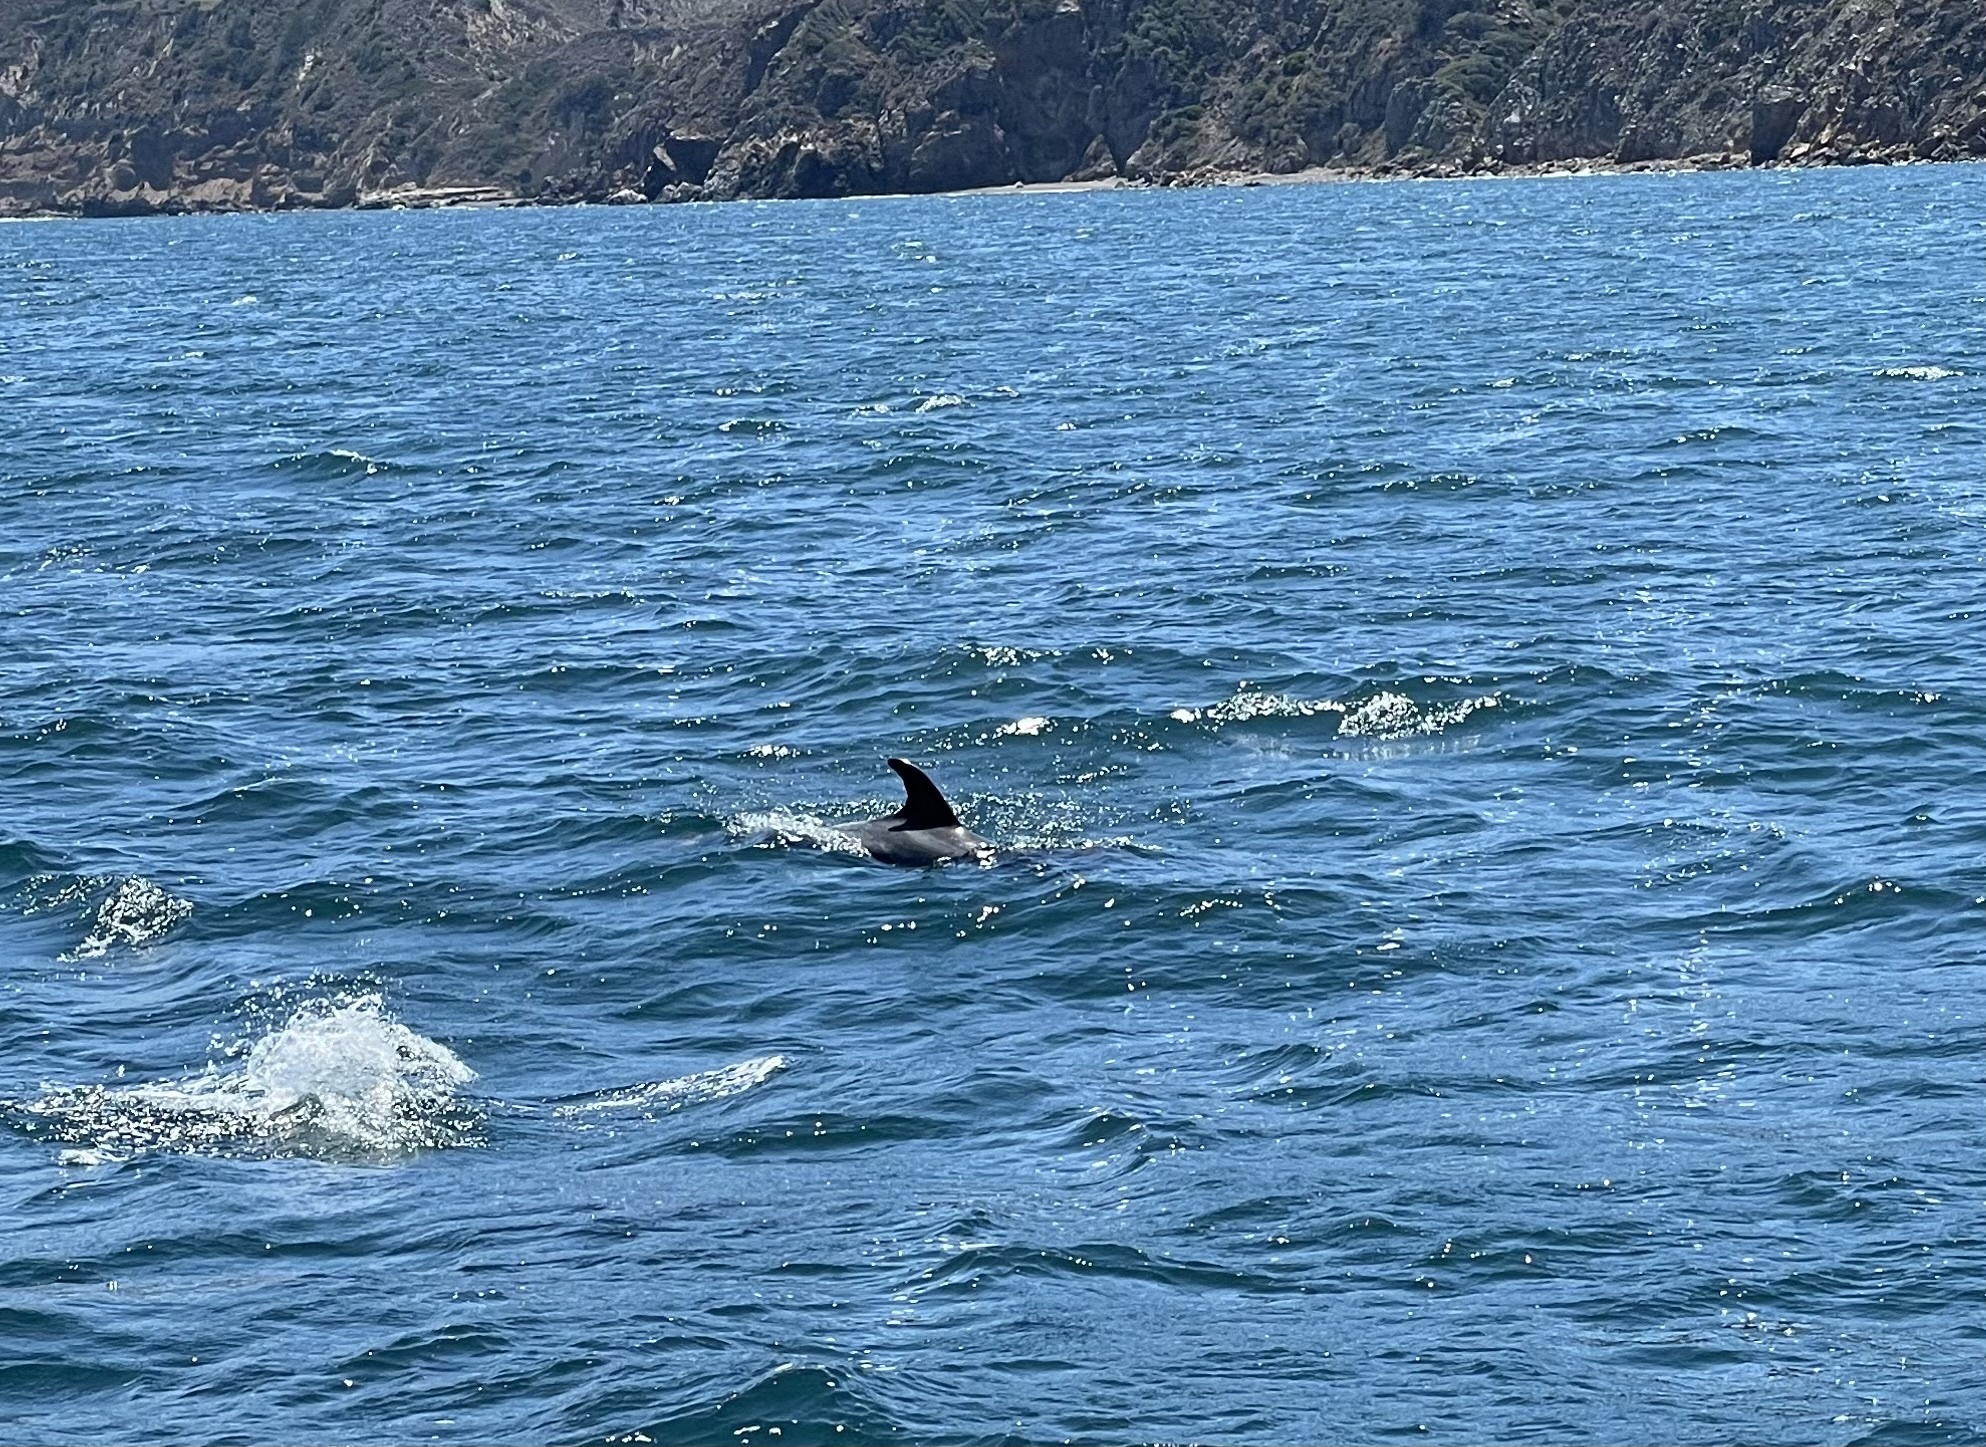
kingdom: Animalia
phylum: Chordata
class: Mammalia
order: Cetacea
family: Delphinidae
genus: Tursiops
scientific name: Tursiops truncatus
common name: Bottlenose dolphin
